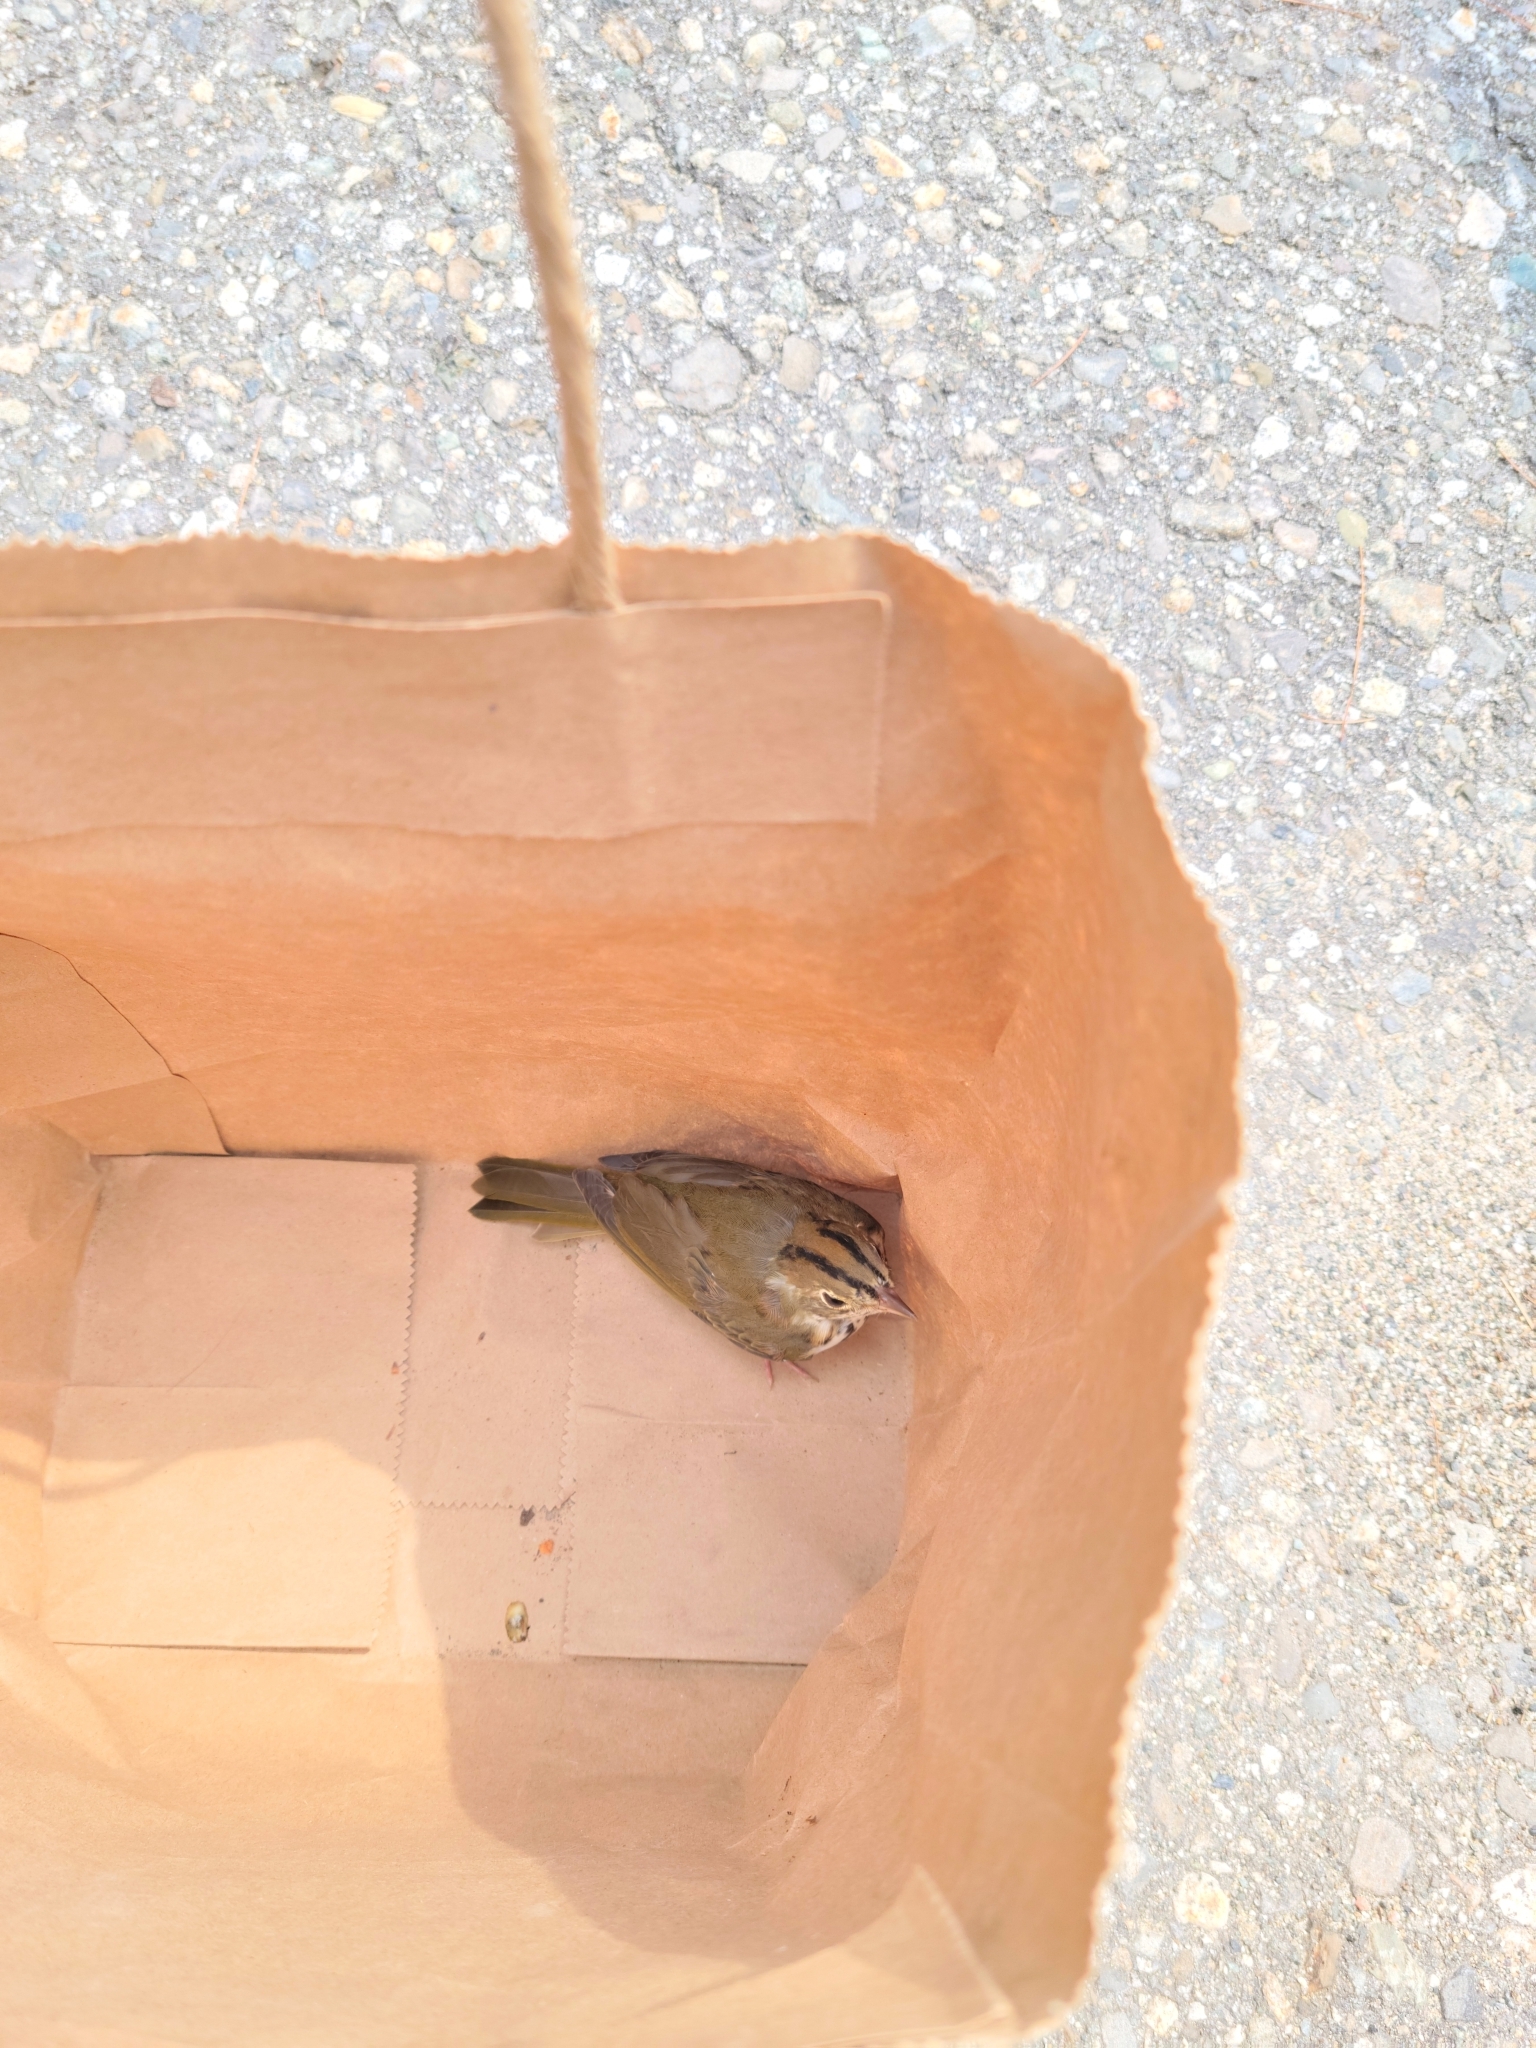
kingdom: Animalia
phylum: Chordata
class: Aves
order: Passeriformes
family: Parulidae
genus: Seiurus
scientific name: Seiurus aurocapilla
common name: Ovenbird
